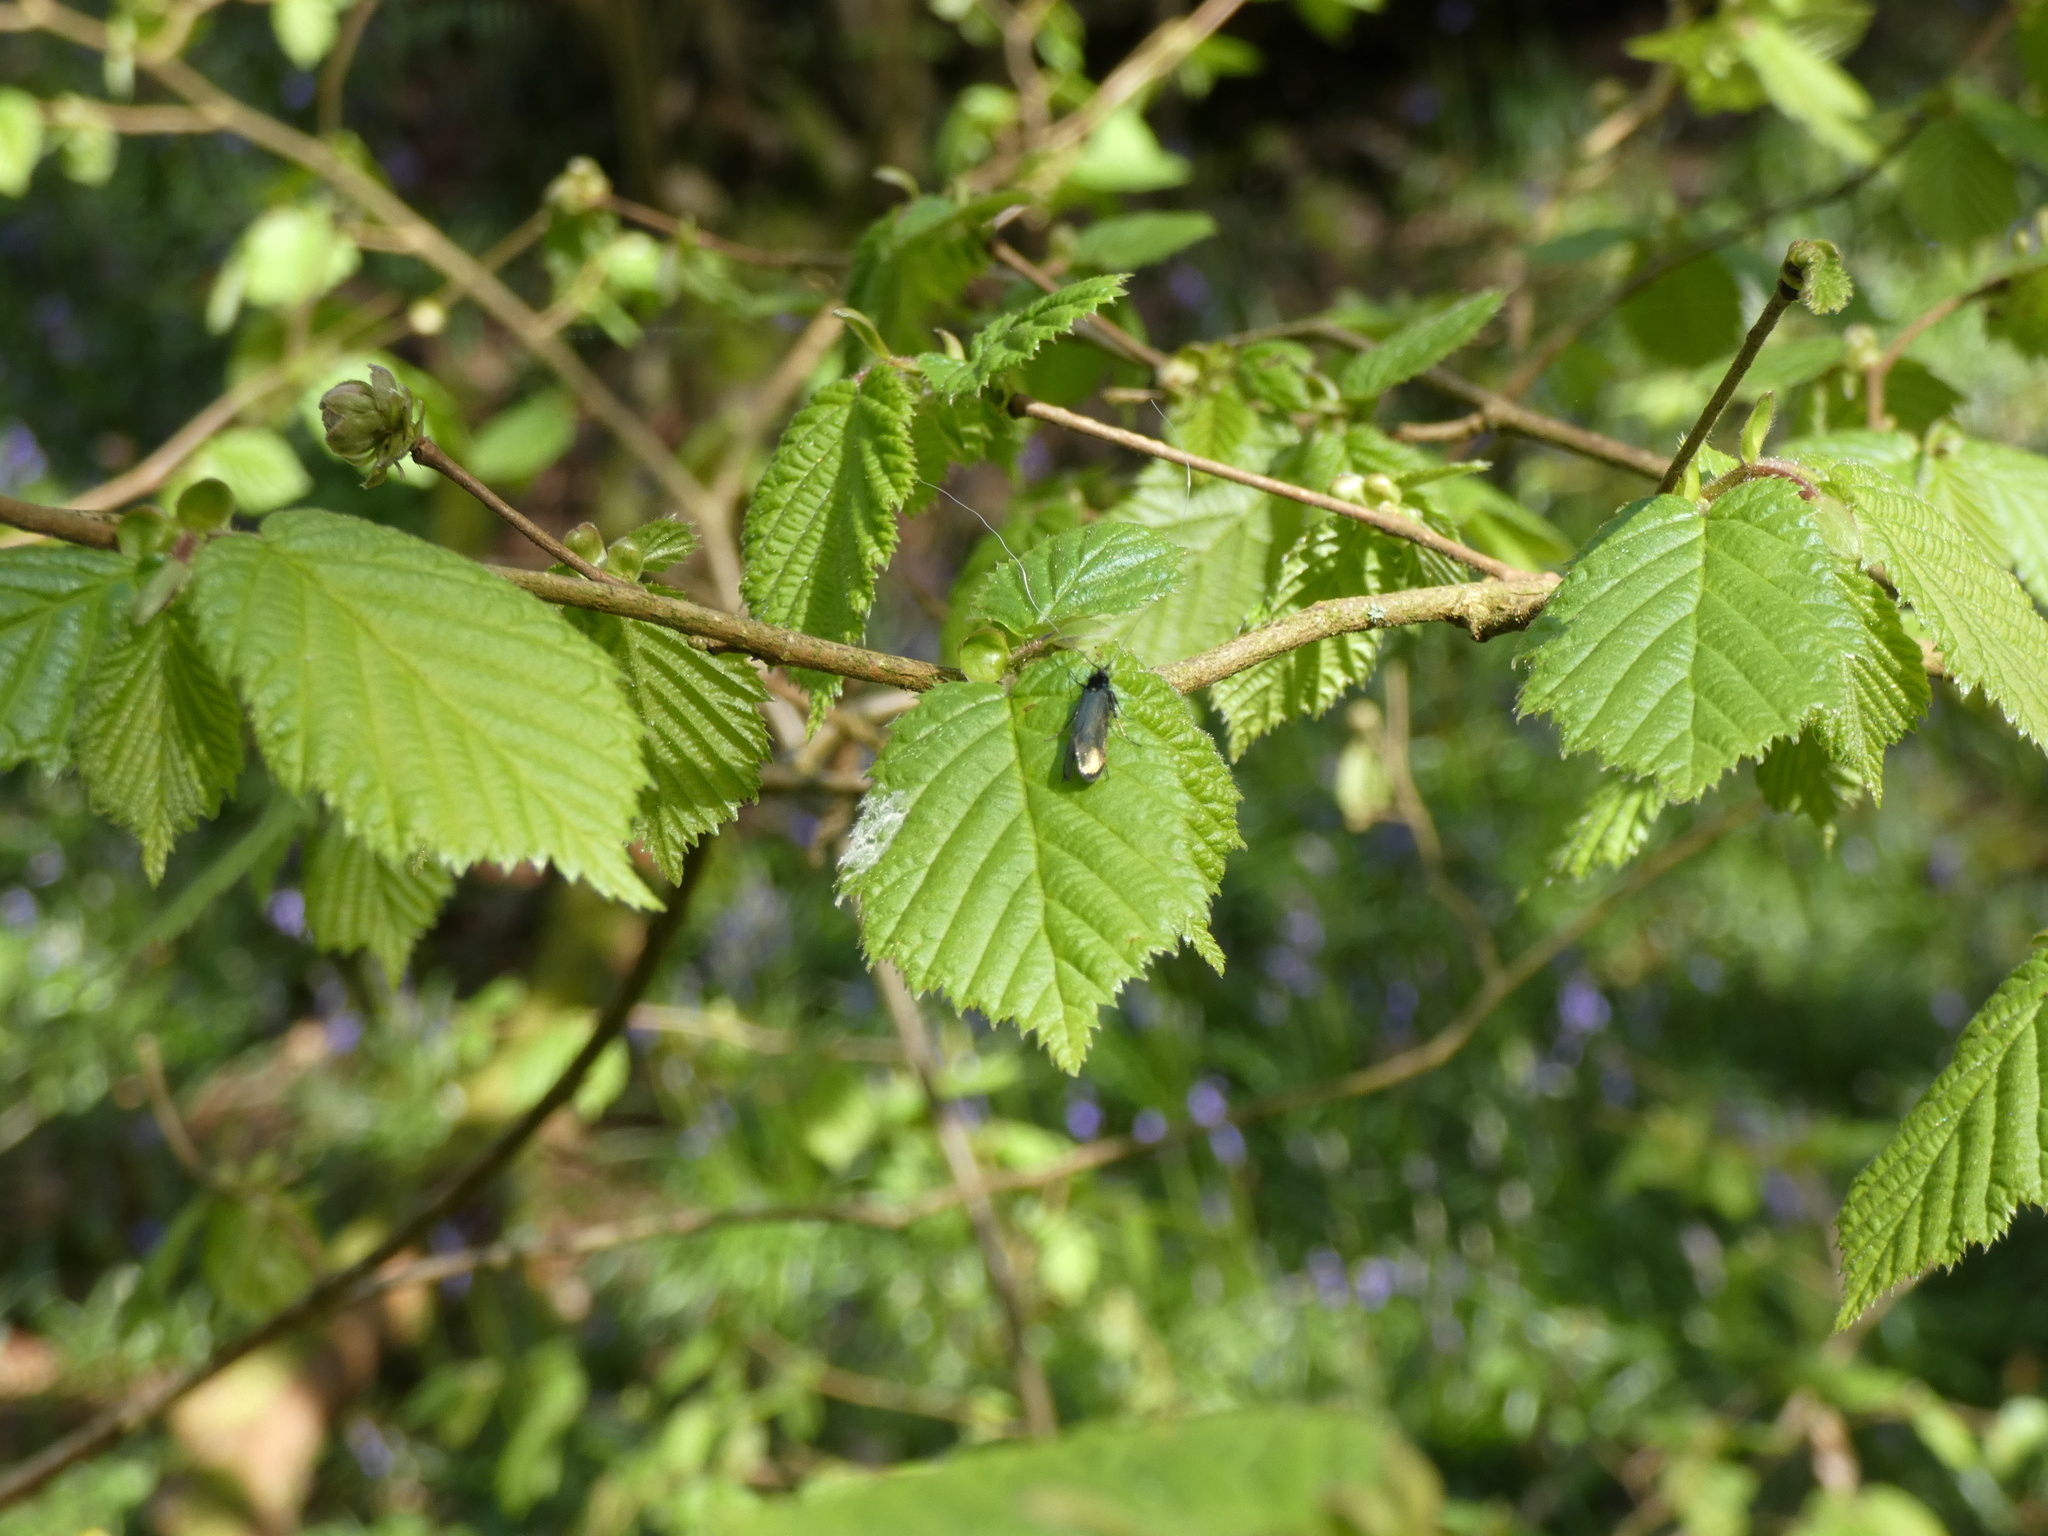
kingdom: Animalia
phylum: Arthropoda
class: Insecta
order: Lepidoptera
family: Adelidae
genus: Adela
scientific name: Adela viridella
